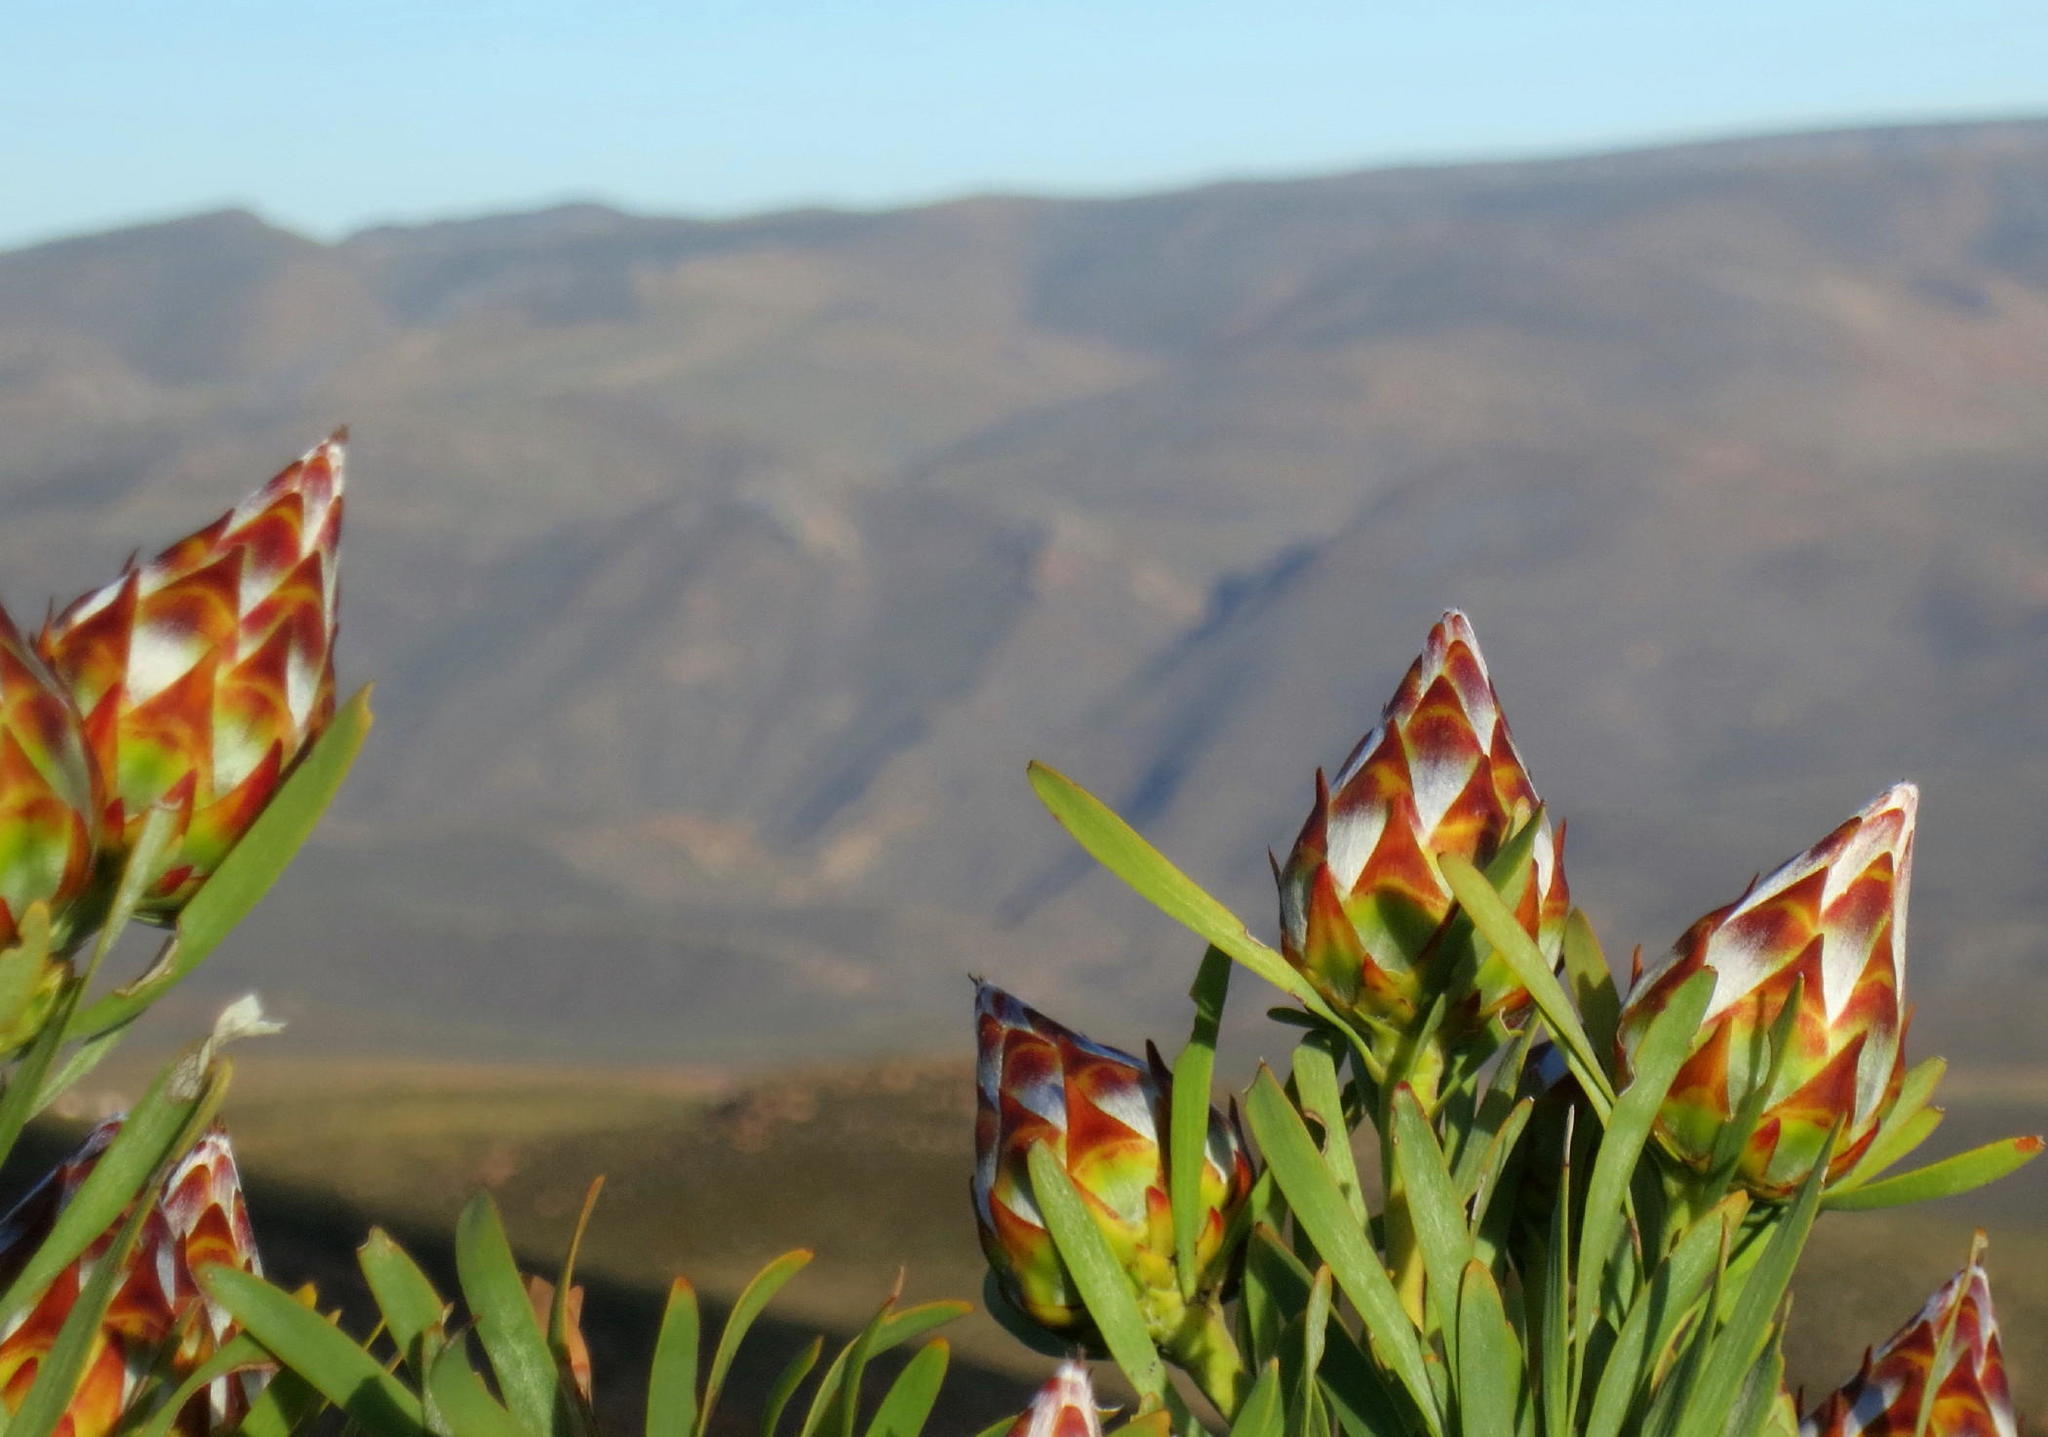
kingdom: Plantae
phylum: Tracheophyta
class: Magnoliopsida
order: Proteales
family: Proteaceae
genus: Leucadendron
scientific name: Leucadendron rubrum
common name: Spinning top
